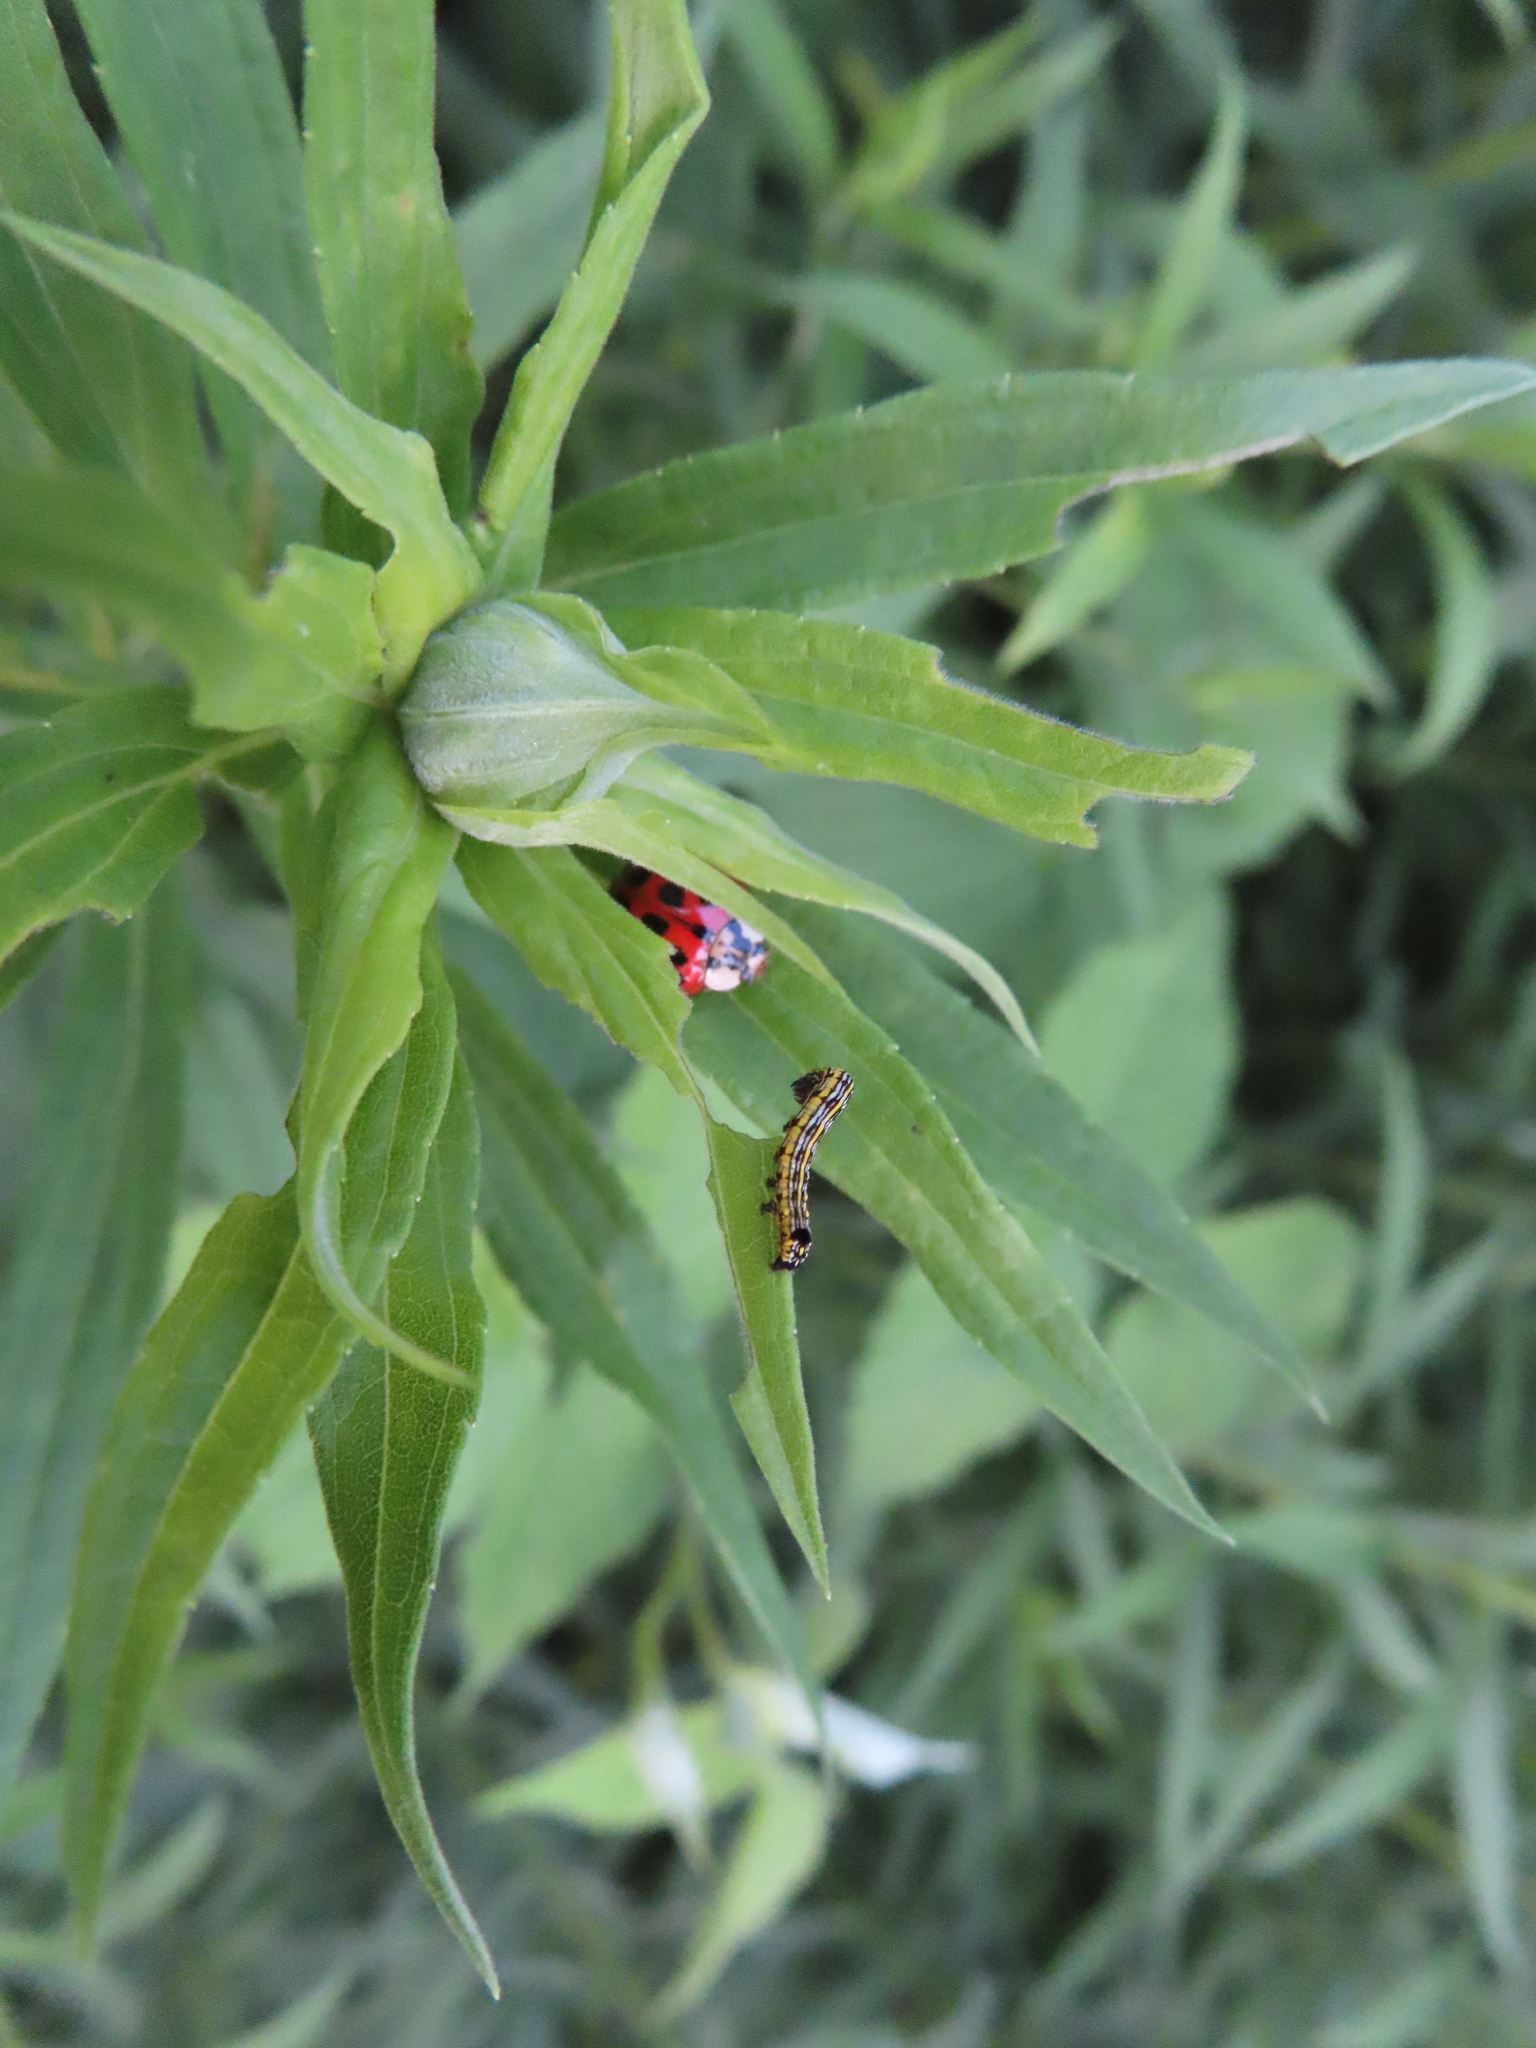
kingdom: Animalia
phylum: Arthropoda
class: Insecta
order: Lepidoptera
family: Noctuidae
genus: Cucullia
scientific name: Cucullia convexipennis
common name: Brown-hooded owlet
